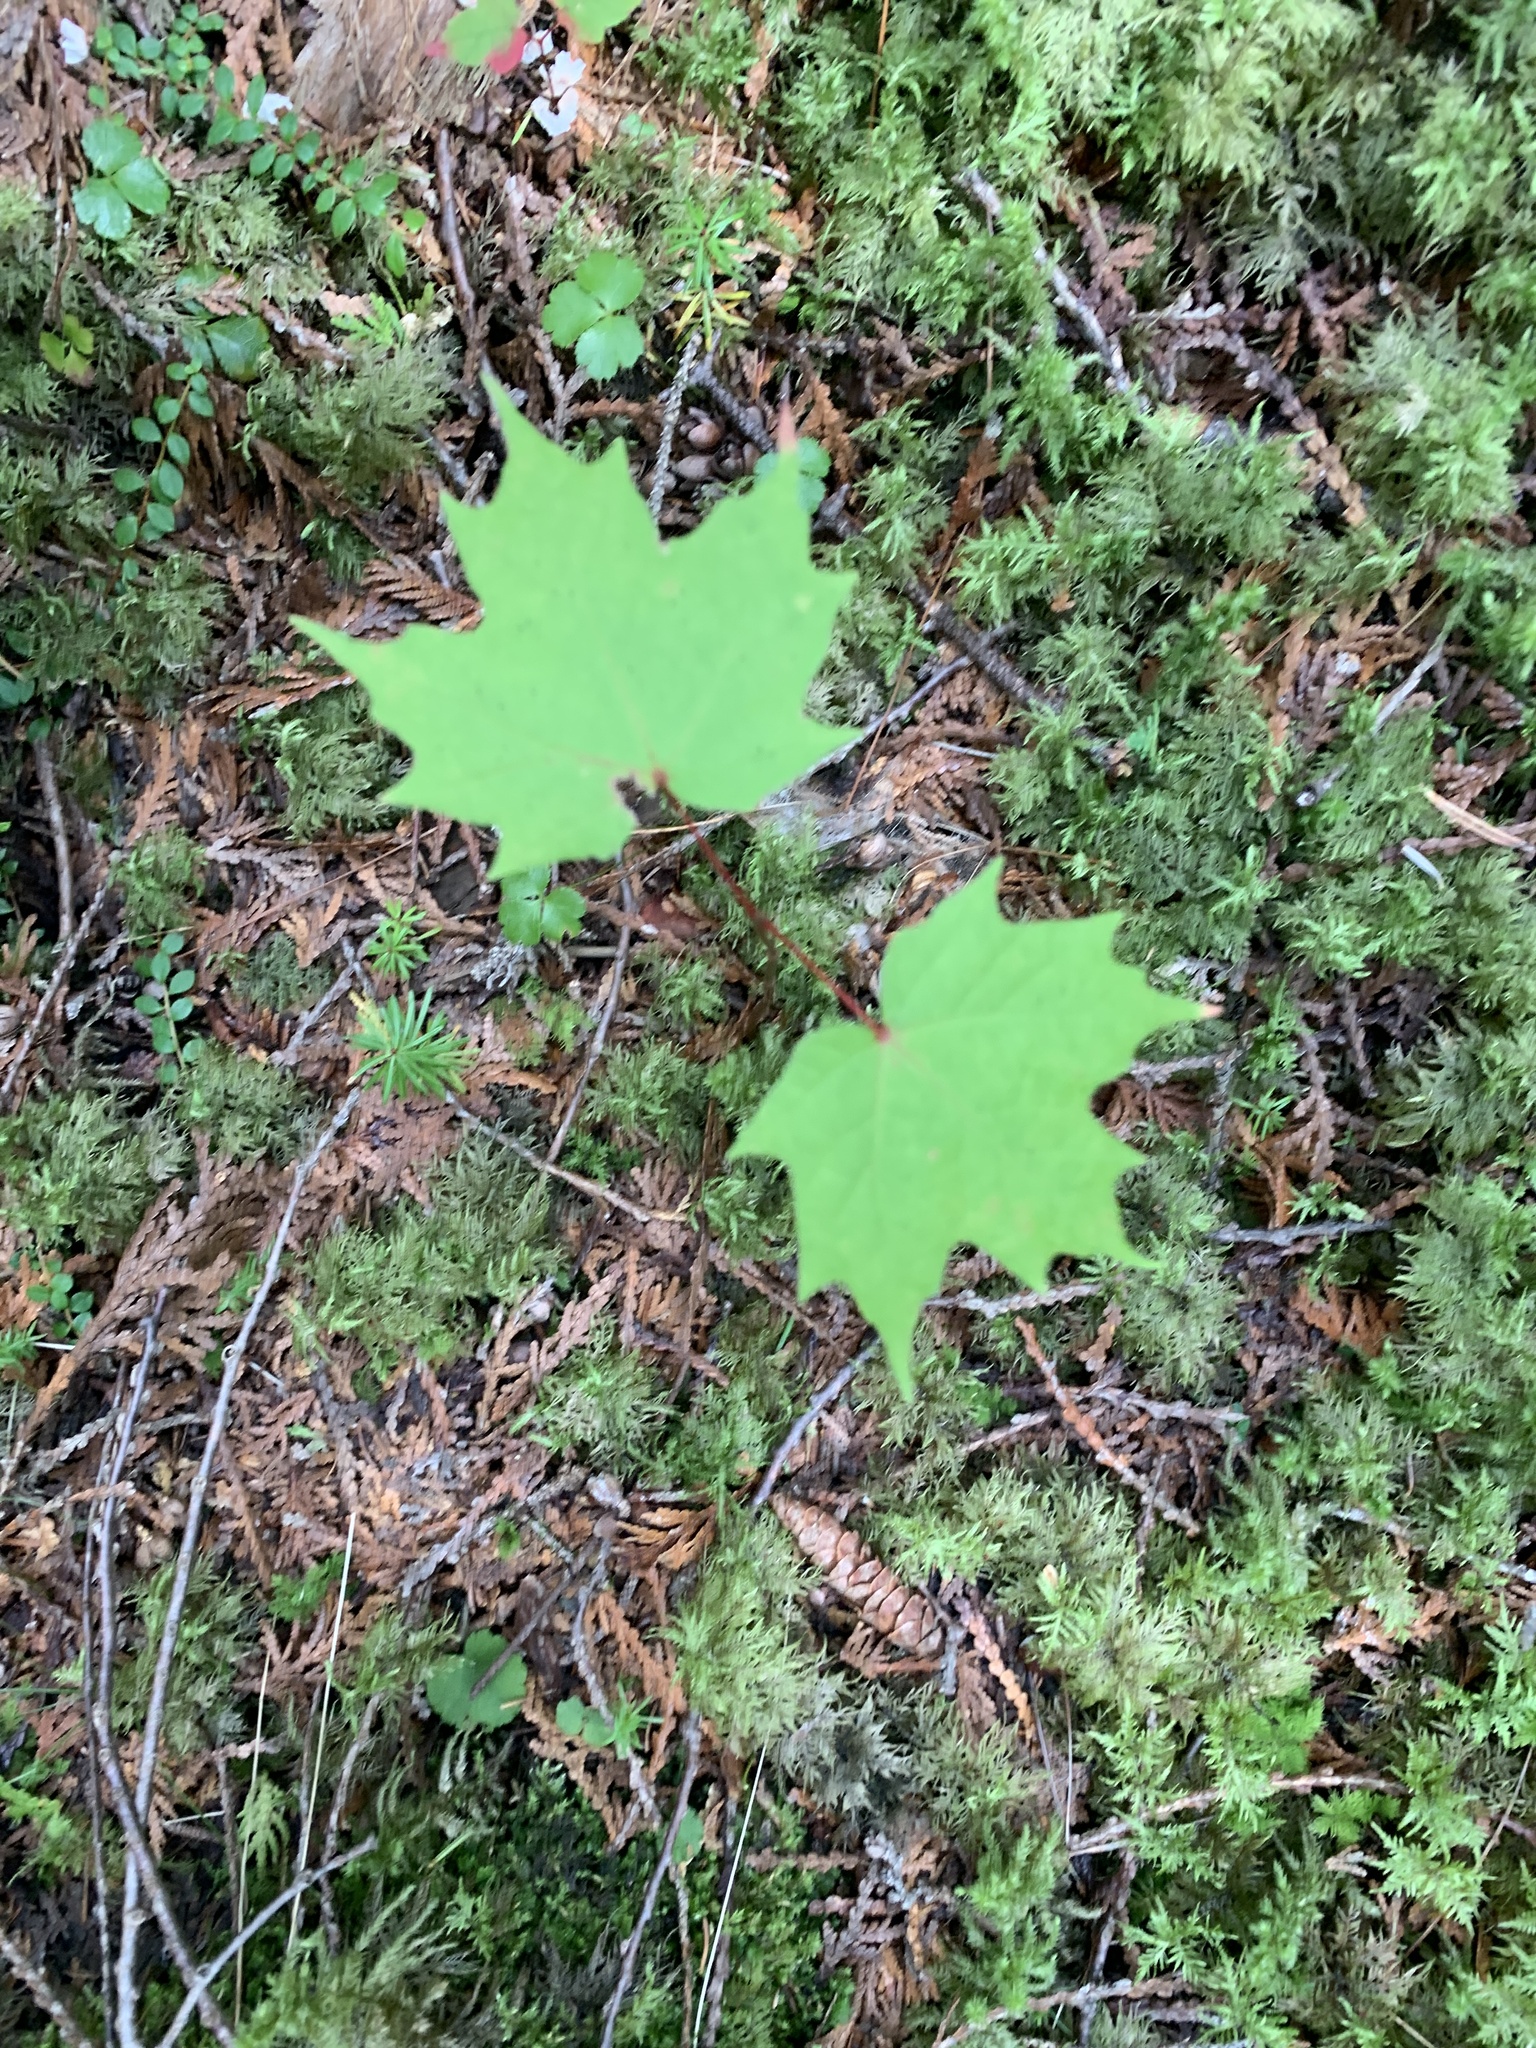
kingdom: Plantae
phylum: Tracheophyta
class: Magnoliopsida
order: Sapindales
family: Sapindaceae
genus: Acer
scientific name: Acer saccharum
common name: Sugar maple
